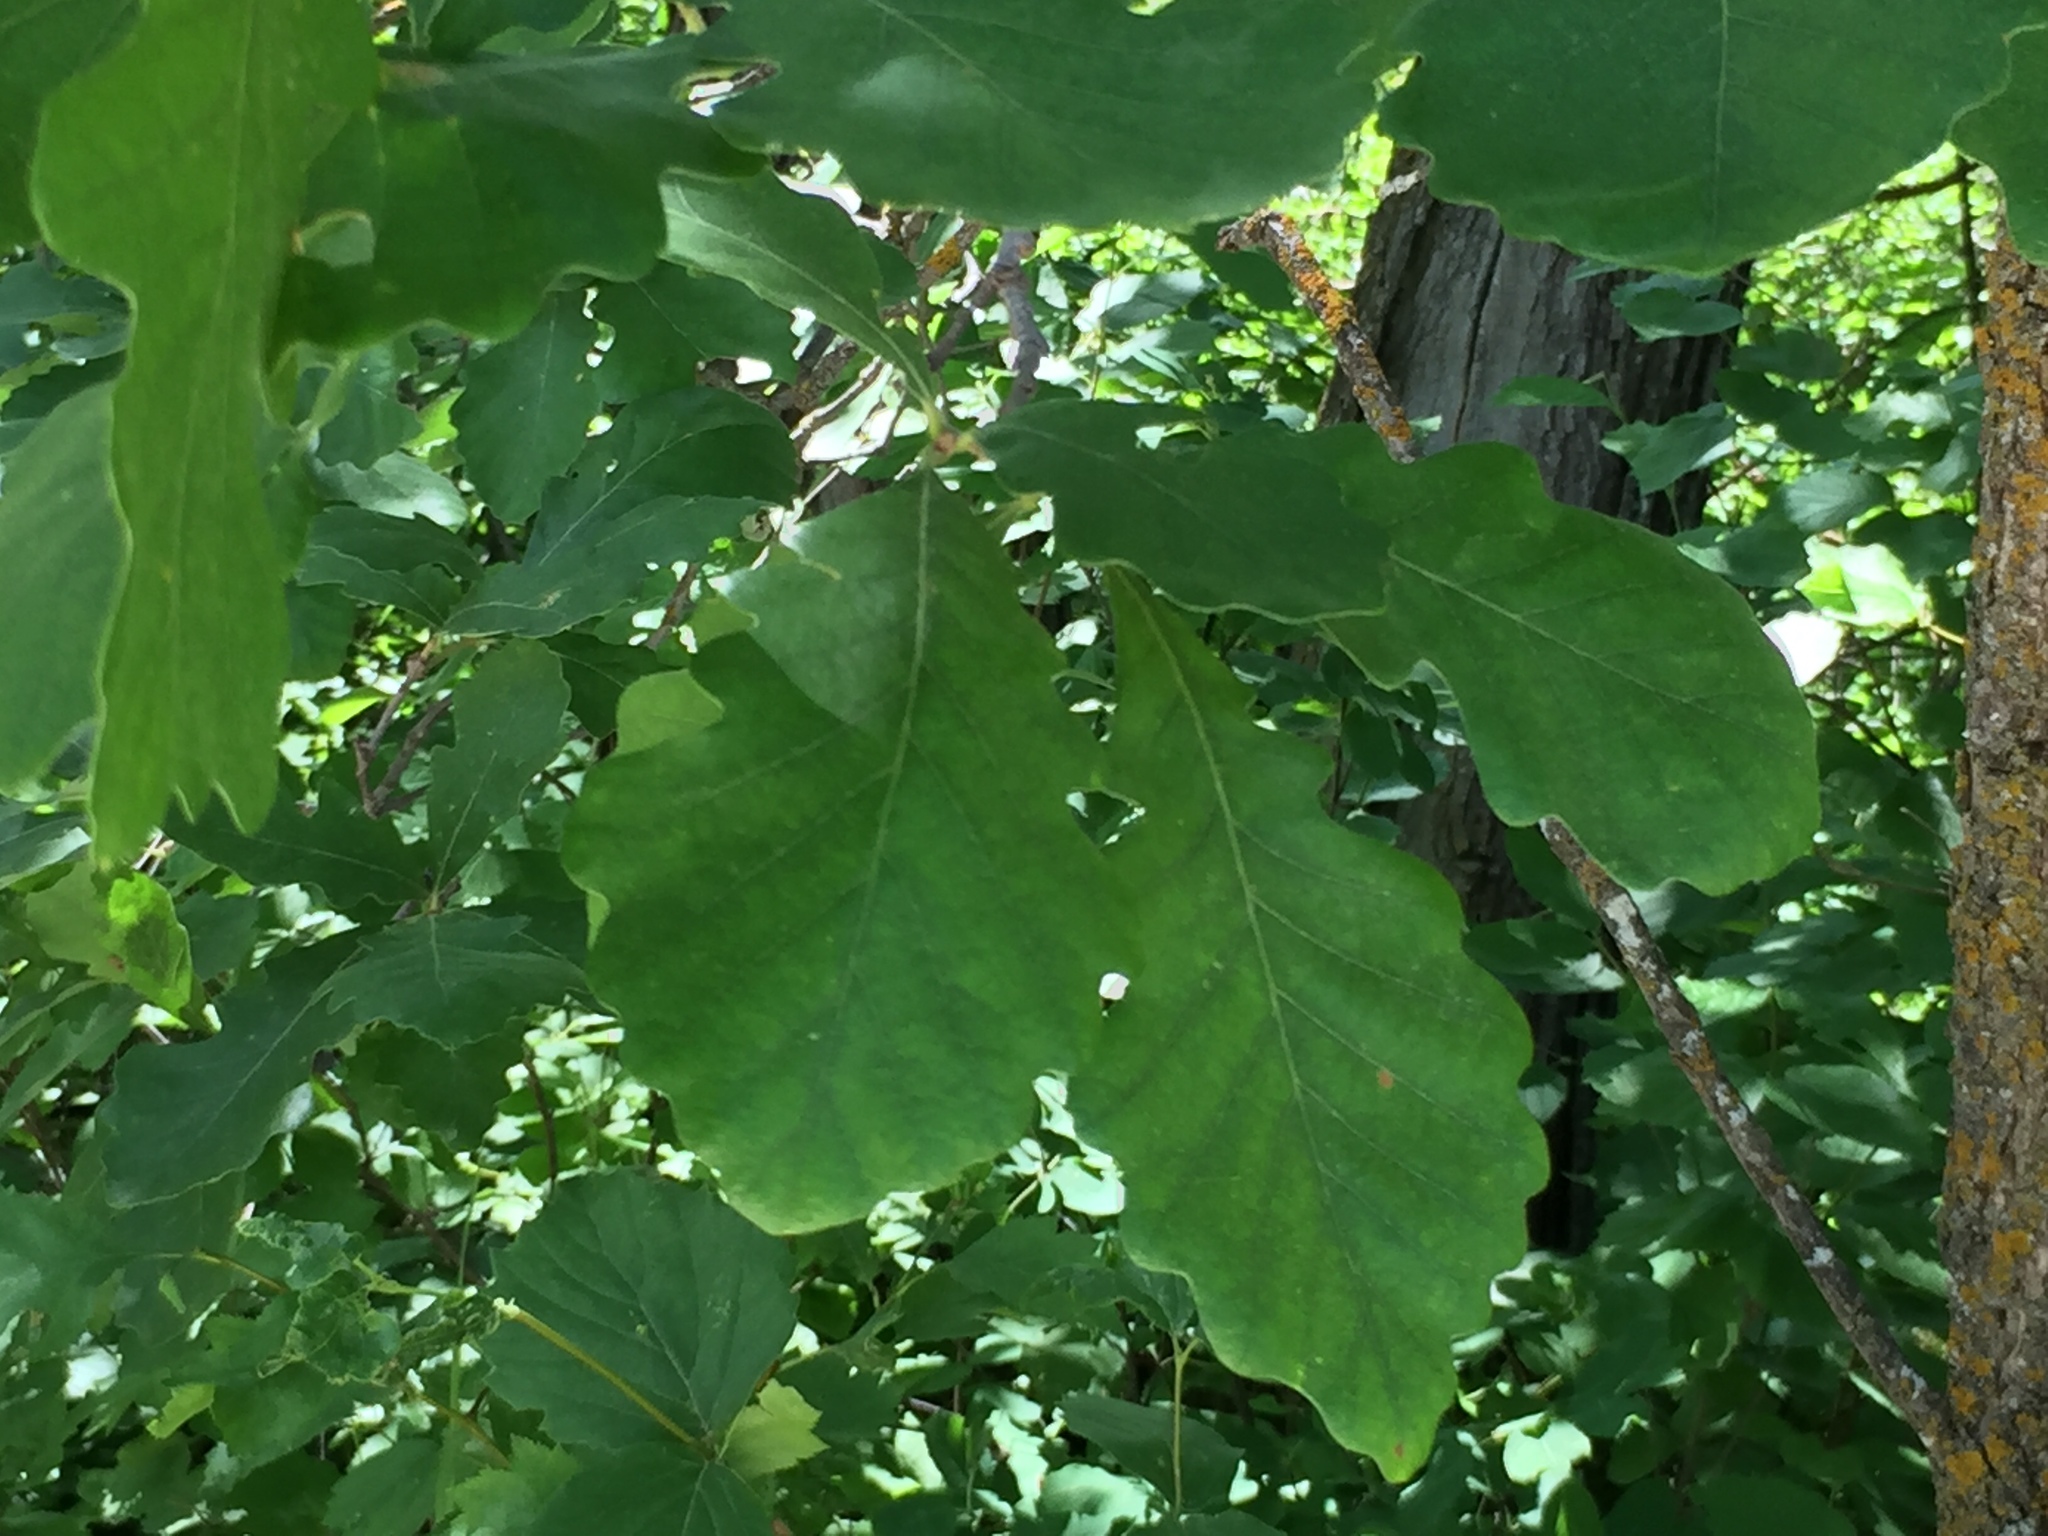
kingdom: Plantae
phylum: Tracheophyta
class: Magnoliopsida
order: Fagales
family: Fagaceae
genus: Quercus
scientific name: Quercus macrocarpa
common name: Bur oak
